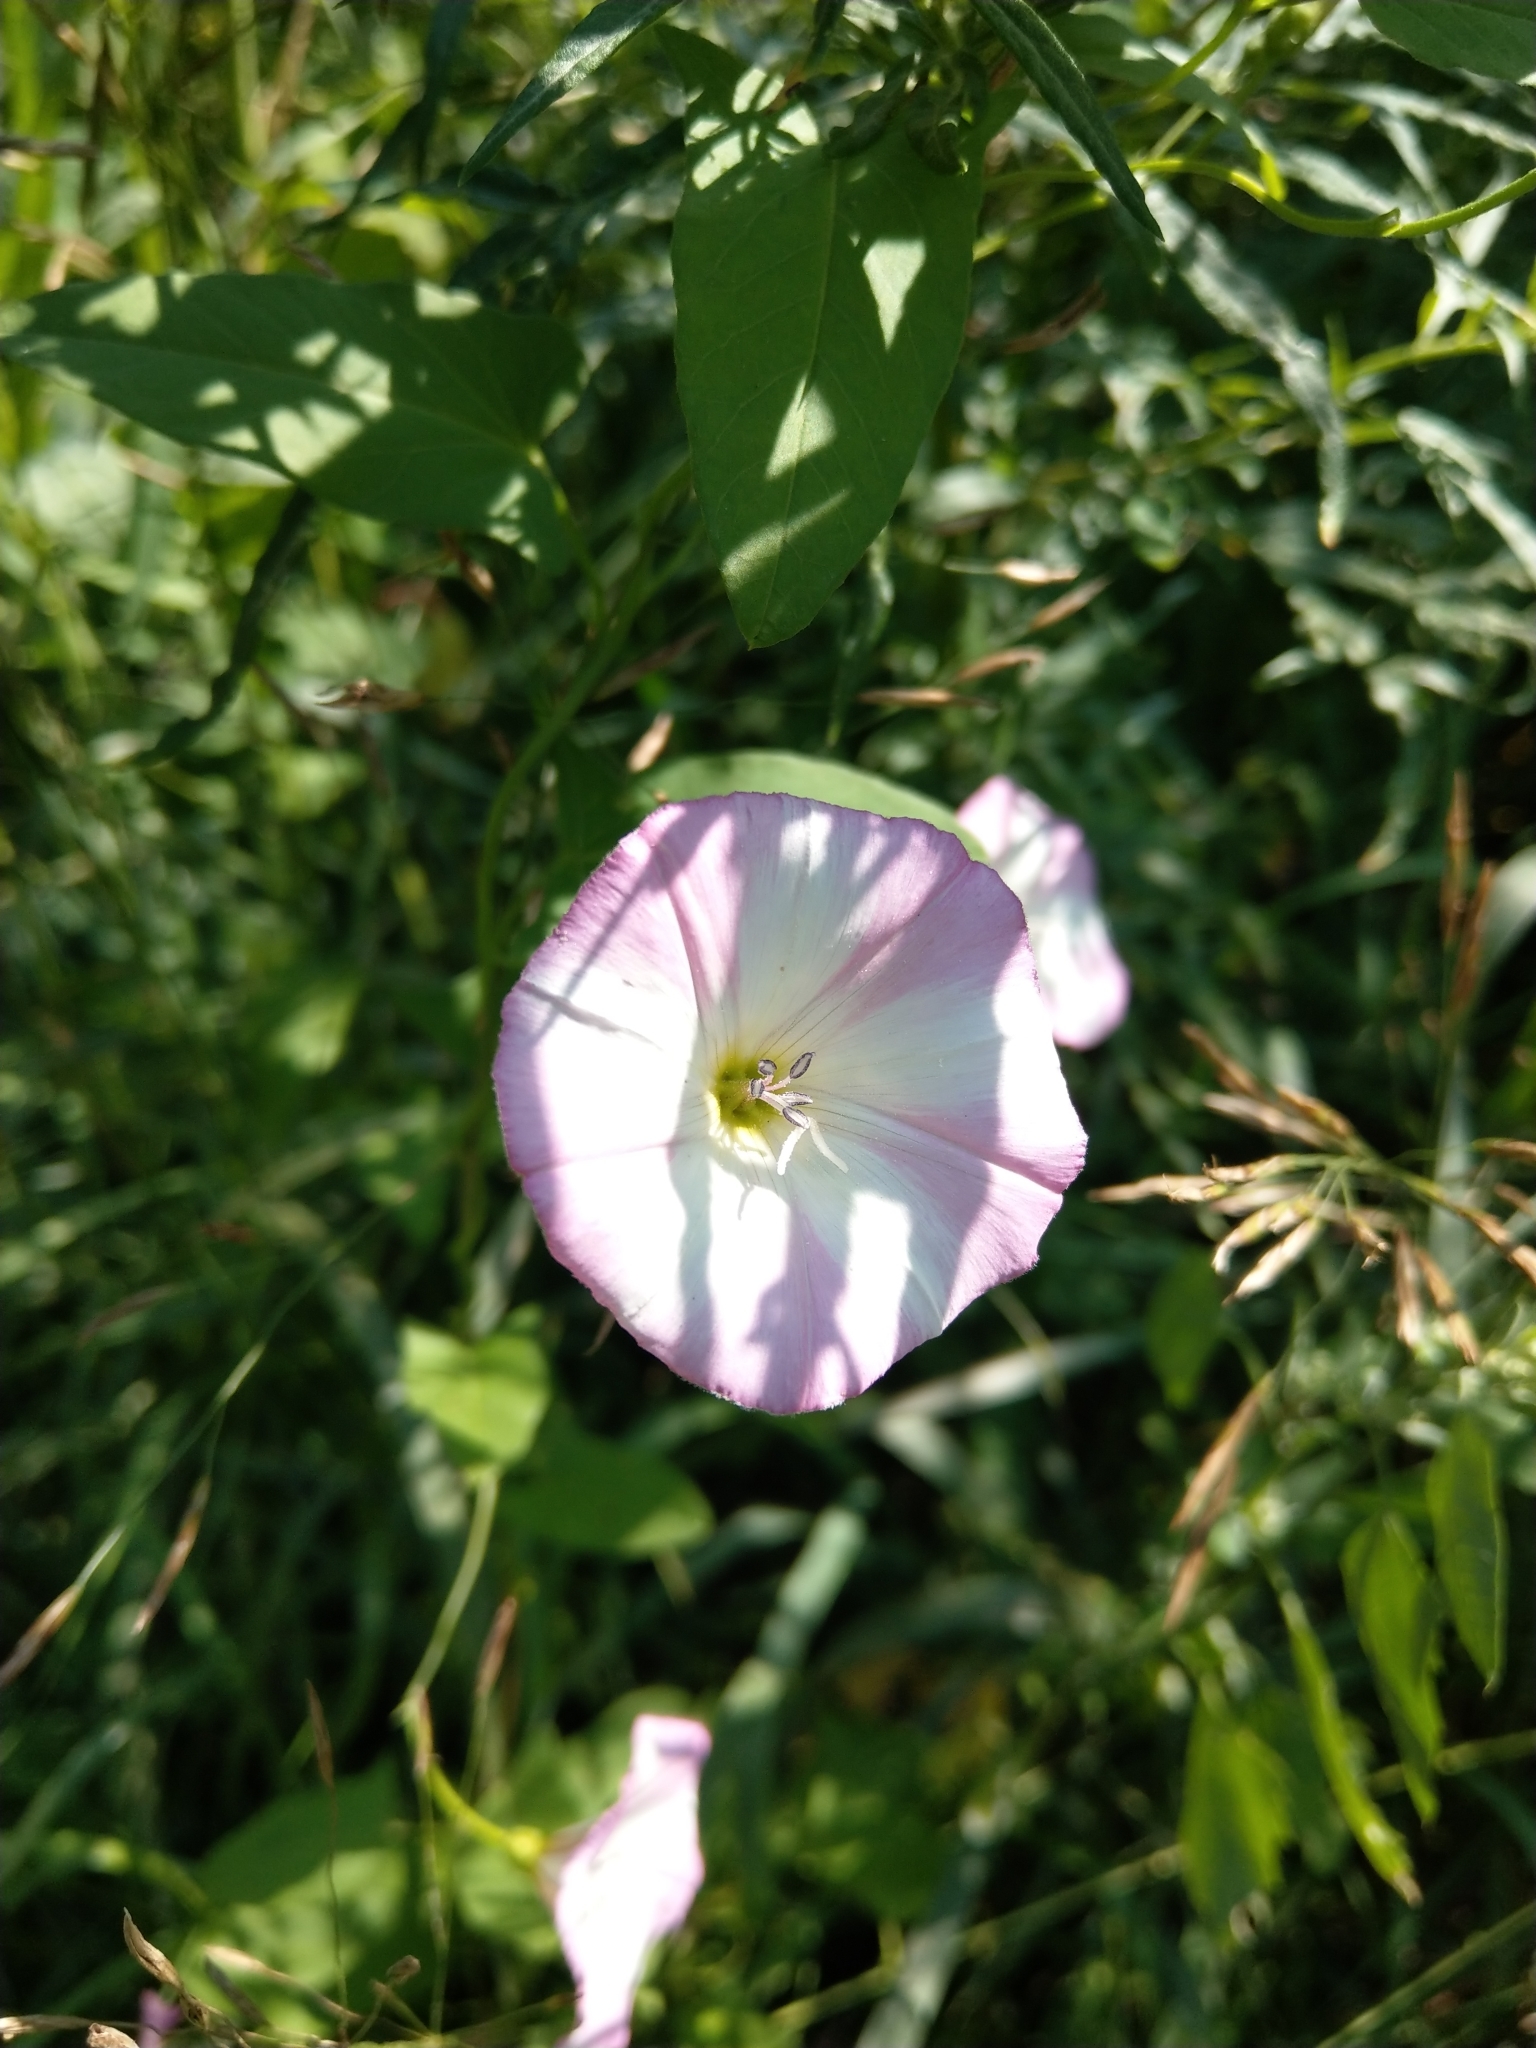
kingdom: Plantae
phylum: Tracheophyta
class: Magnoliopsida
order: Solanales
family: Convolvulaceae
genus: Convolvulus
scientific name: Convolvulus arvensis
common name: Field bindweed
